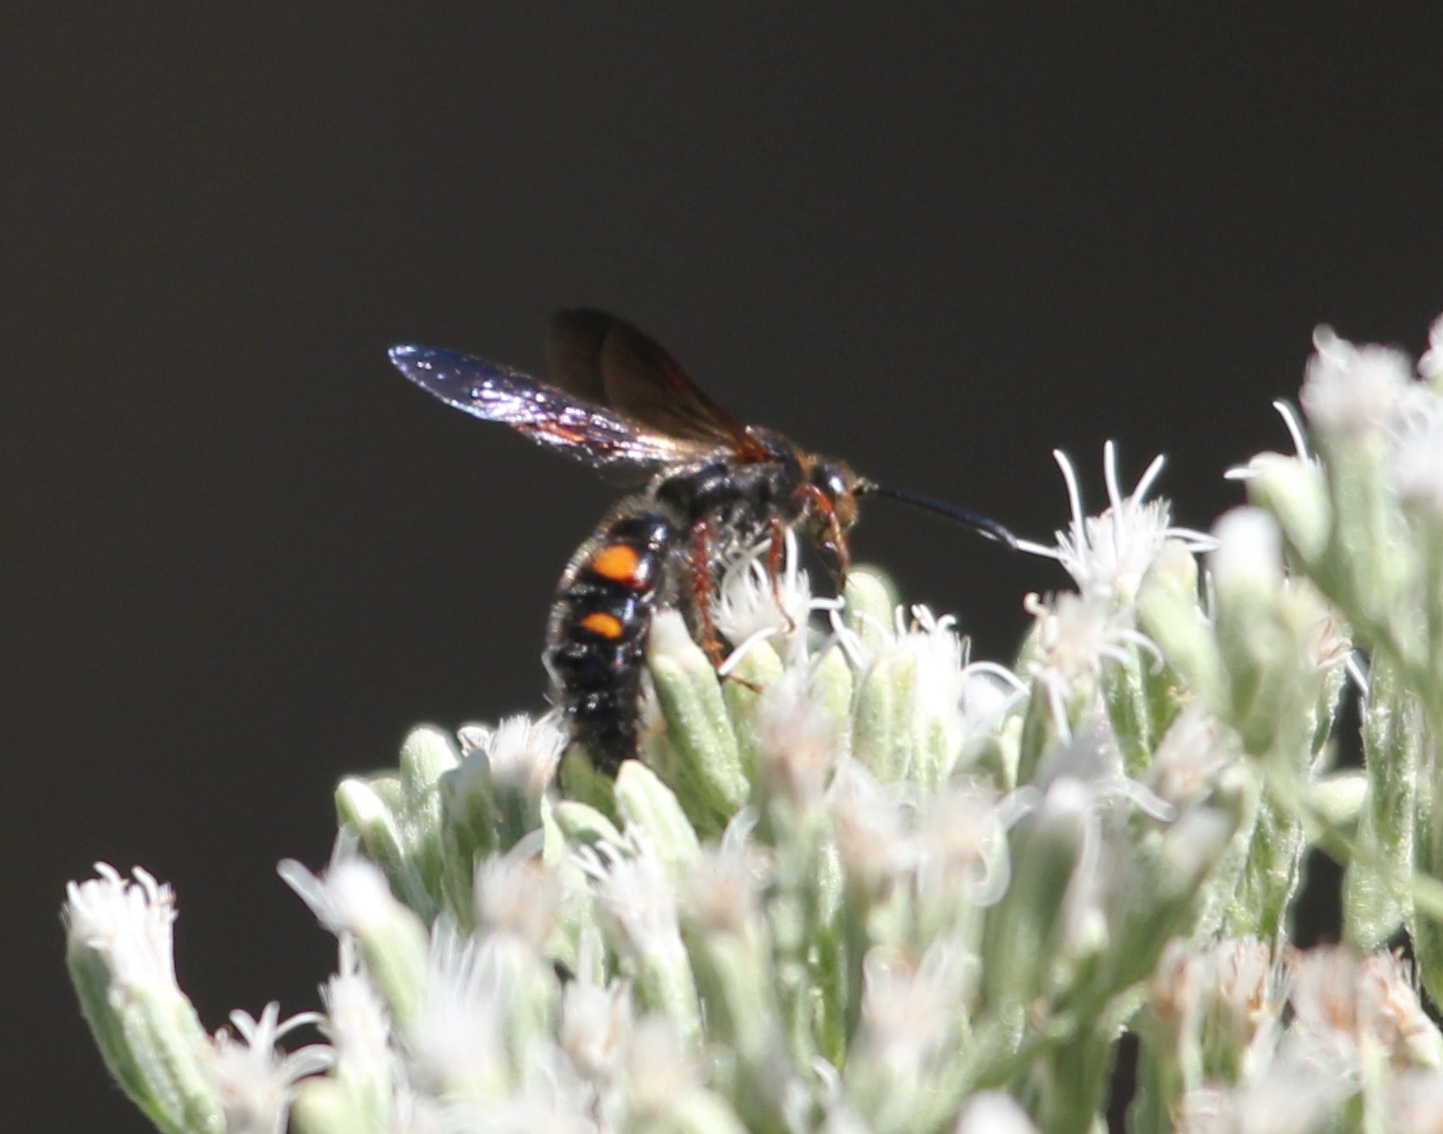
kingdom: Animalia
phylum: Arthropoda
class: Insecta
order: Hymenoptera
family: Scoliidae
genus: Scolia
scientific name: Scolia nobilitata
